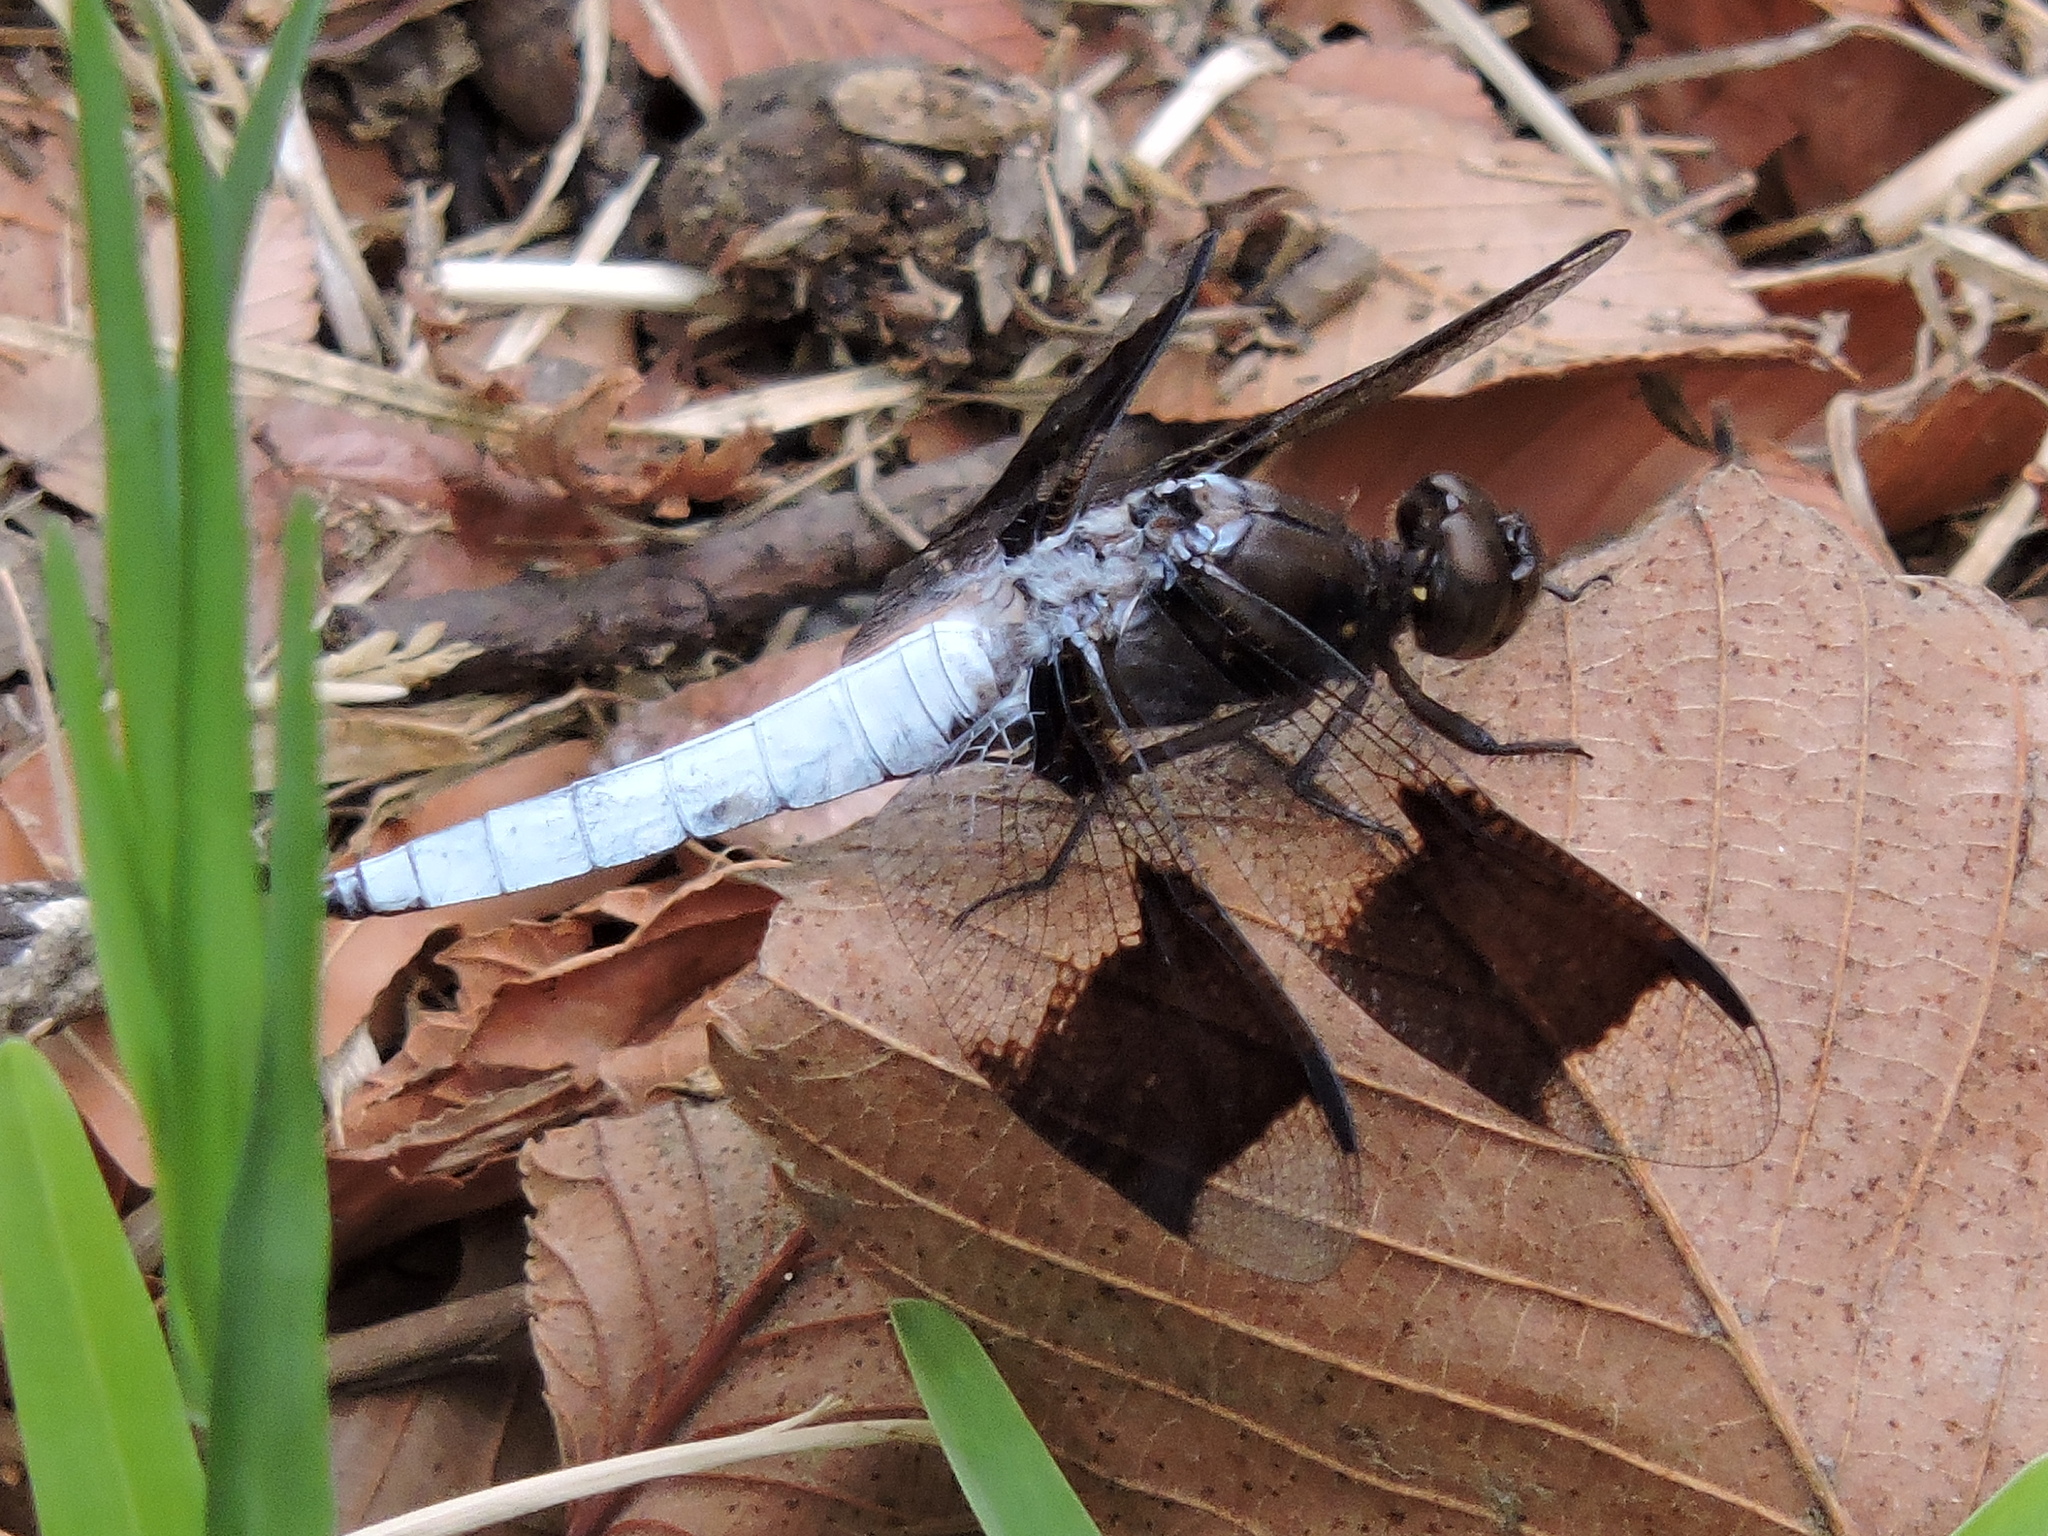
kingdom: Animalia
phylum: Arthropoda
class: Insecta
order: Odonata
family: Libellulidae
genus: Plathemis
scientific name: Plathemis lydia
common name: Common whitetail
